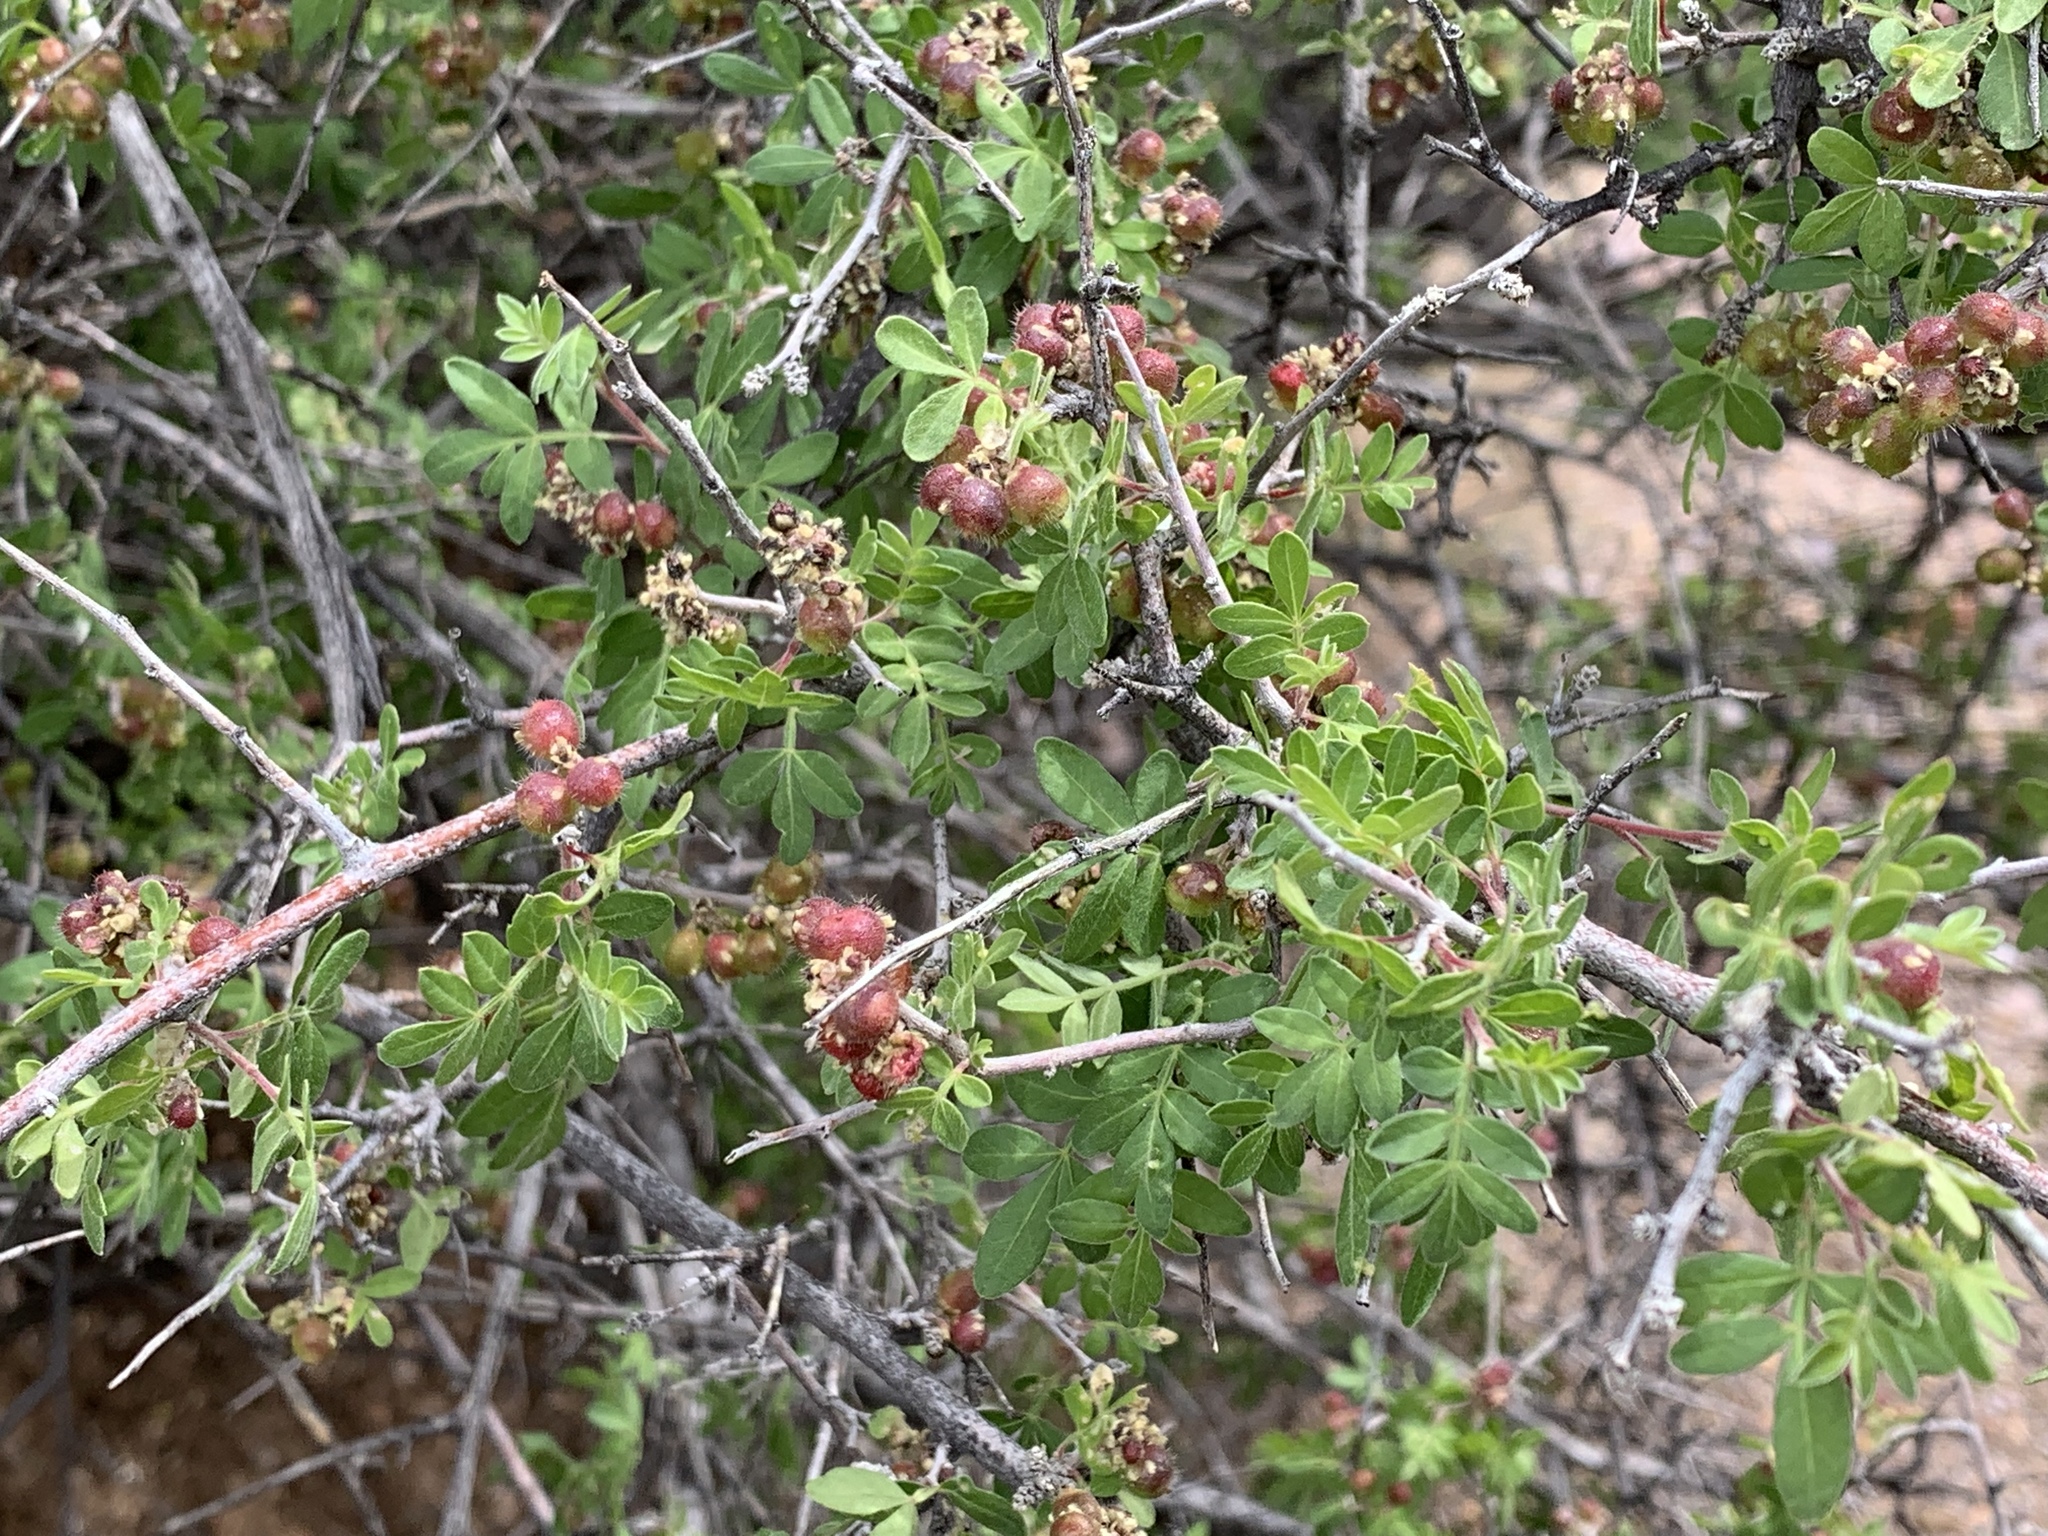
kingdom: Plantae
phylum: Tracheophyta
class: Magnoliopsida
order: Sapindales
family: Anacardiaceae
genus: Rhus
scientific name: Rhus microphylla
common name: Desert sumac
